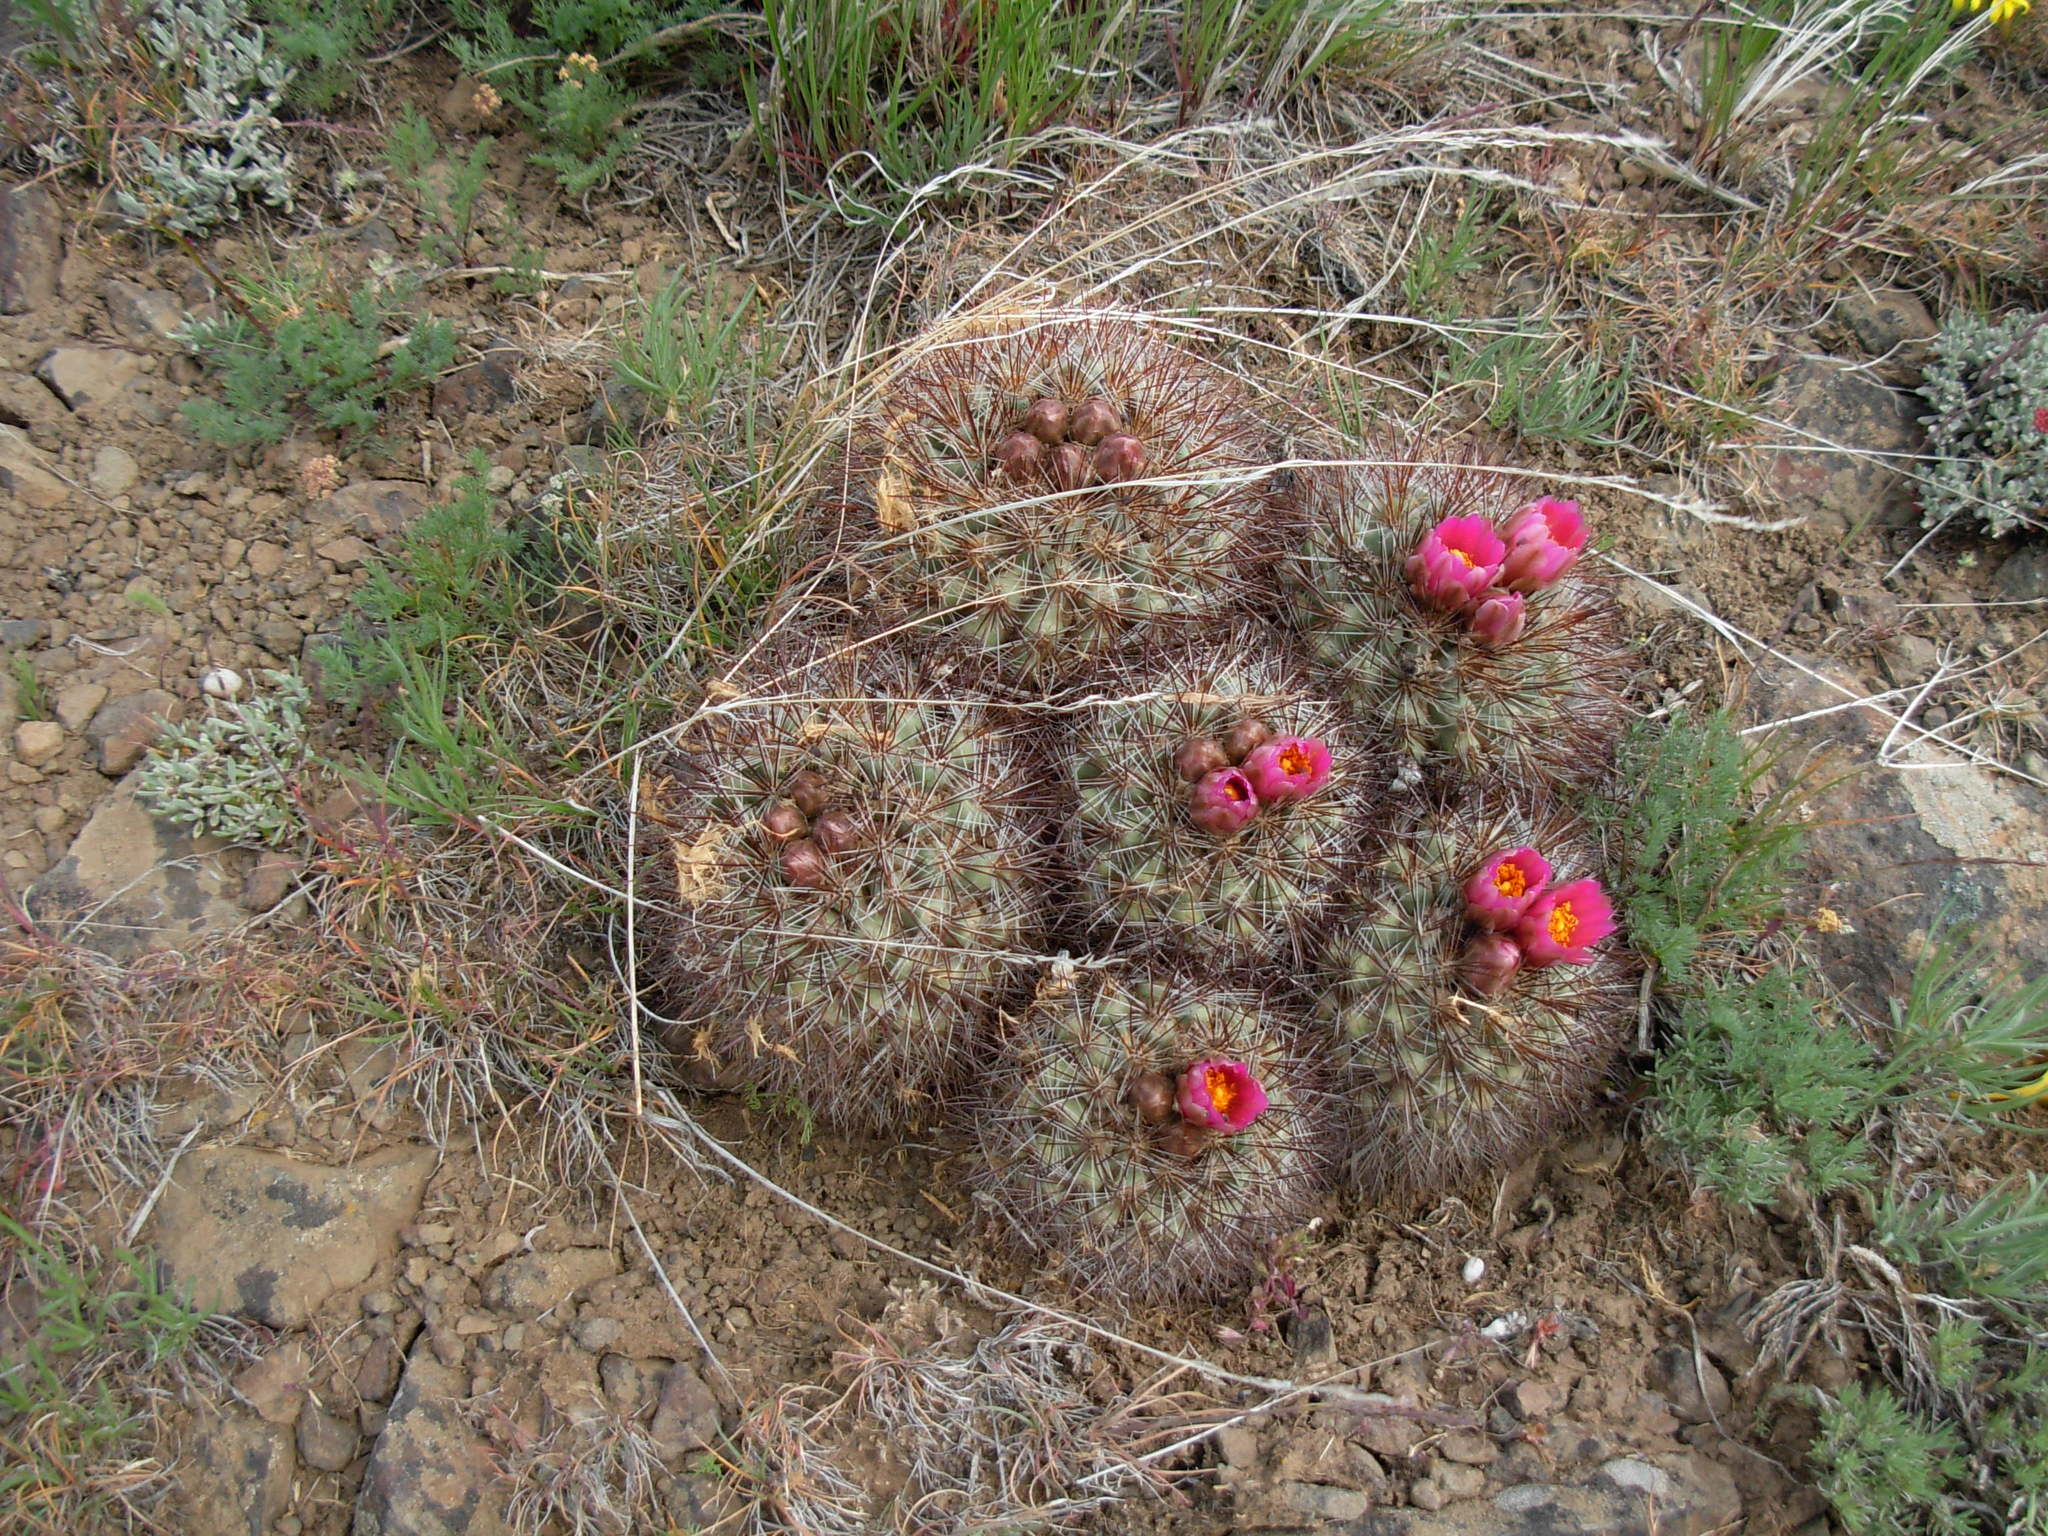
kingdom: Plantae
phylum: Tracheophyta
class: Magnoliopsida
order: Caryophyllales
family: Cactaceae
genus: Pediocactus
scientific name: Pediocactus nigrispinus
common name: Simpson's hedgehog cactus
